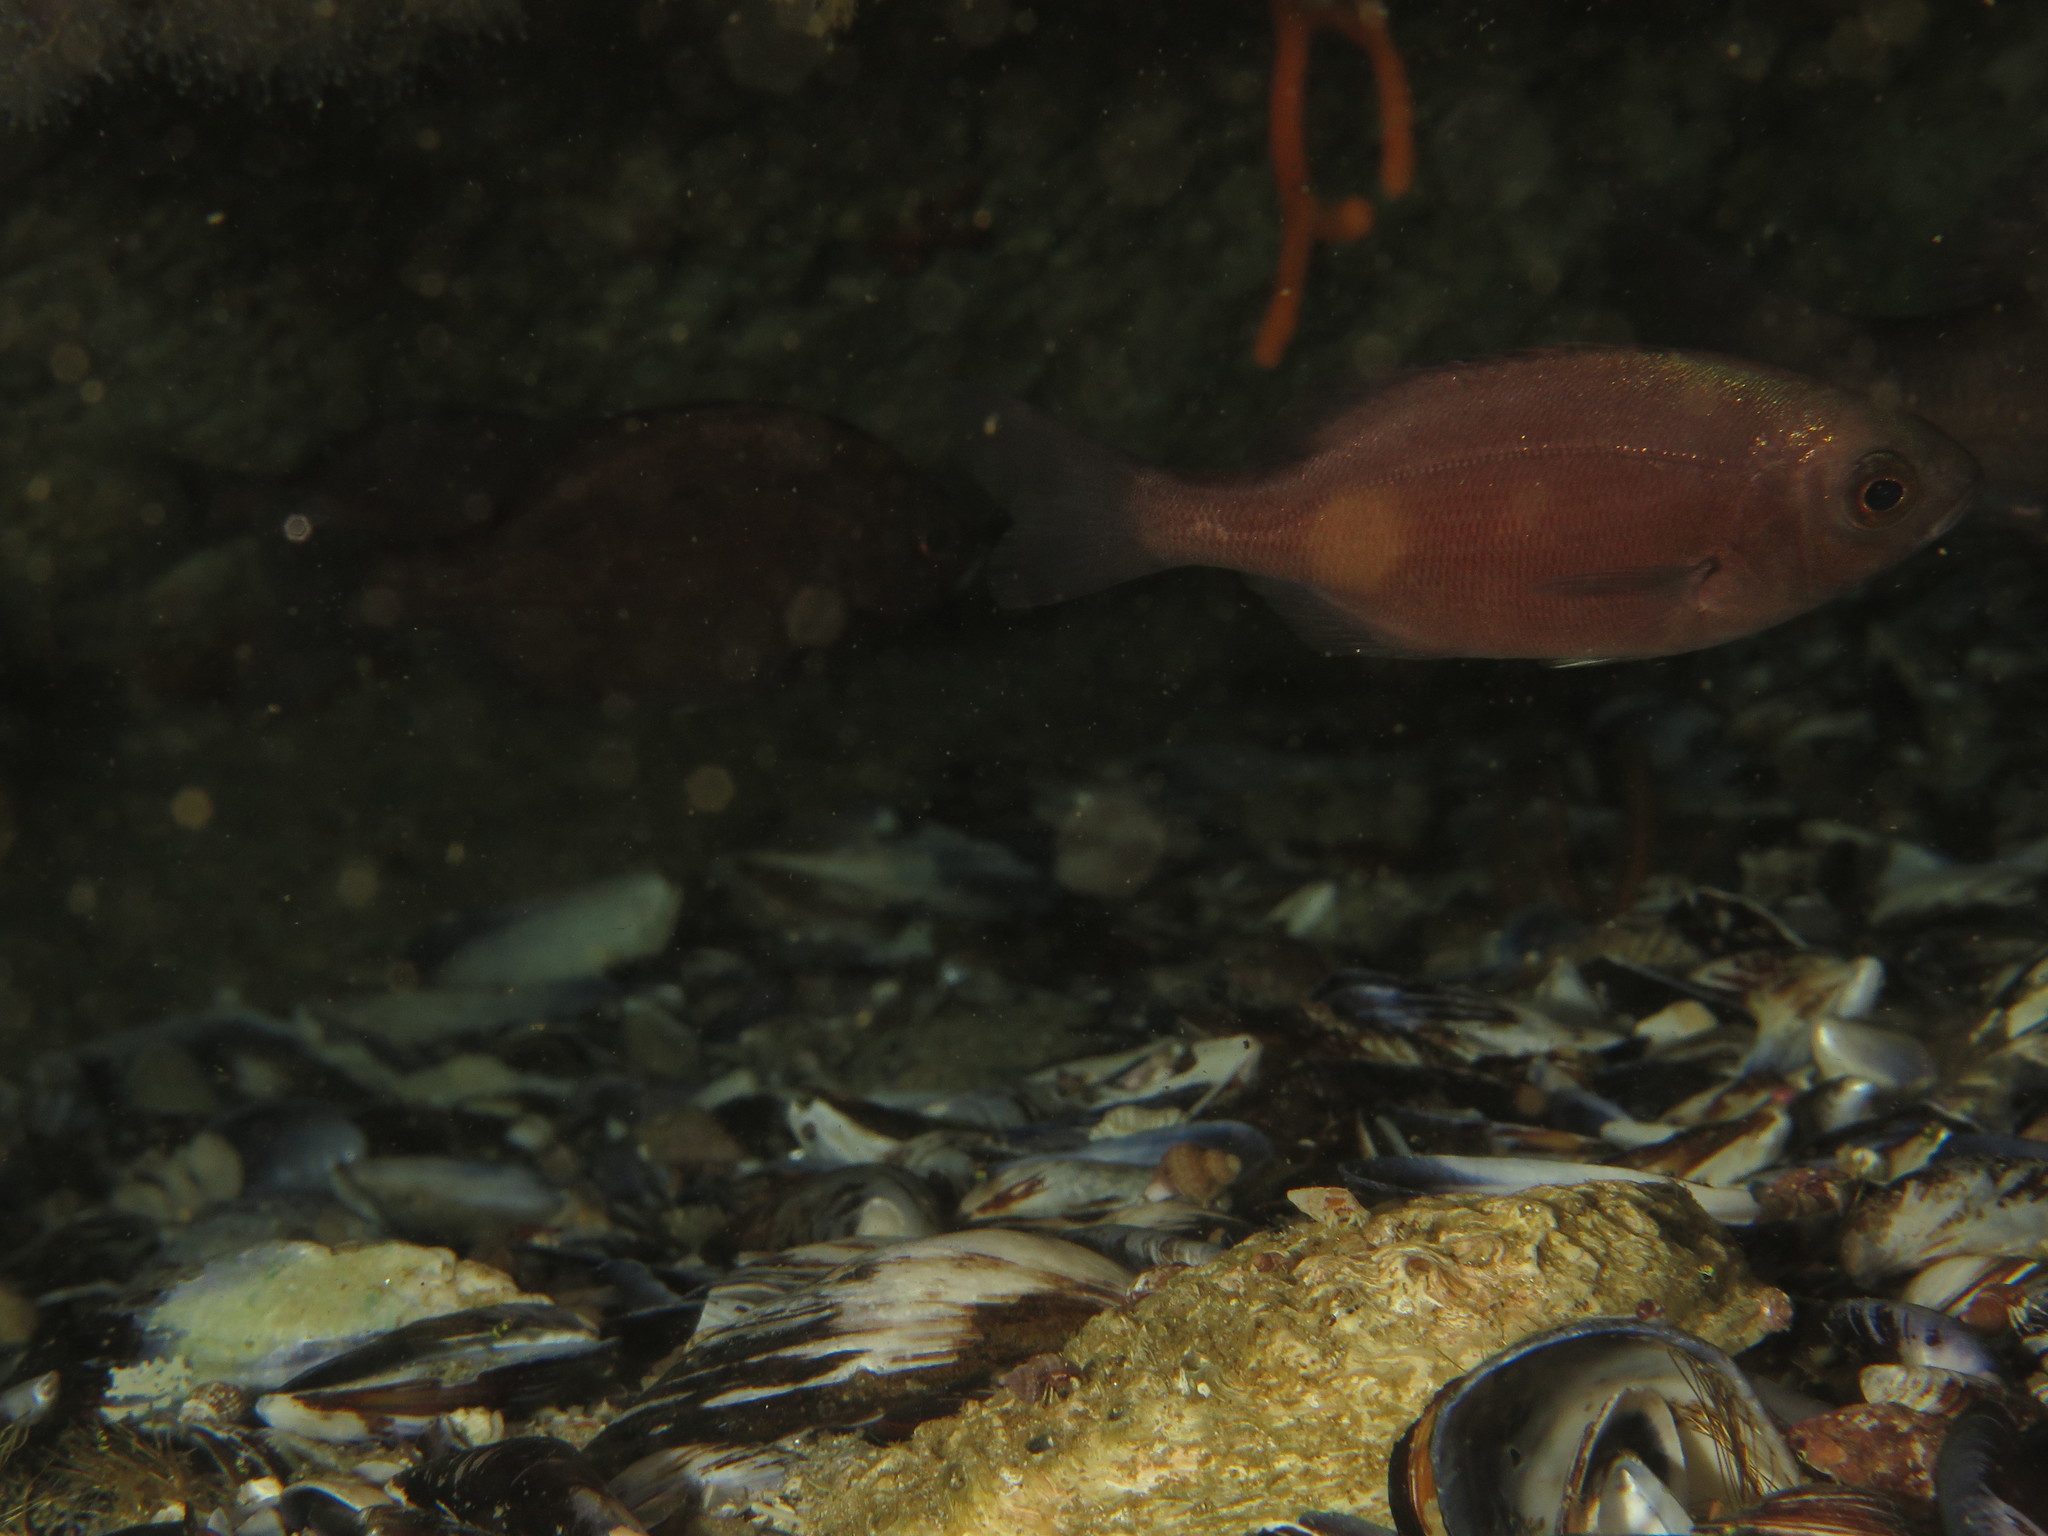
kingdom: Animalia
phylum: Chordata
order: Perciformes
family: Sparidae
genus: Pachymetopon
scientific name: Pachymetopon blochii
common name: Hottentot
